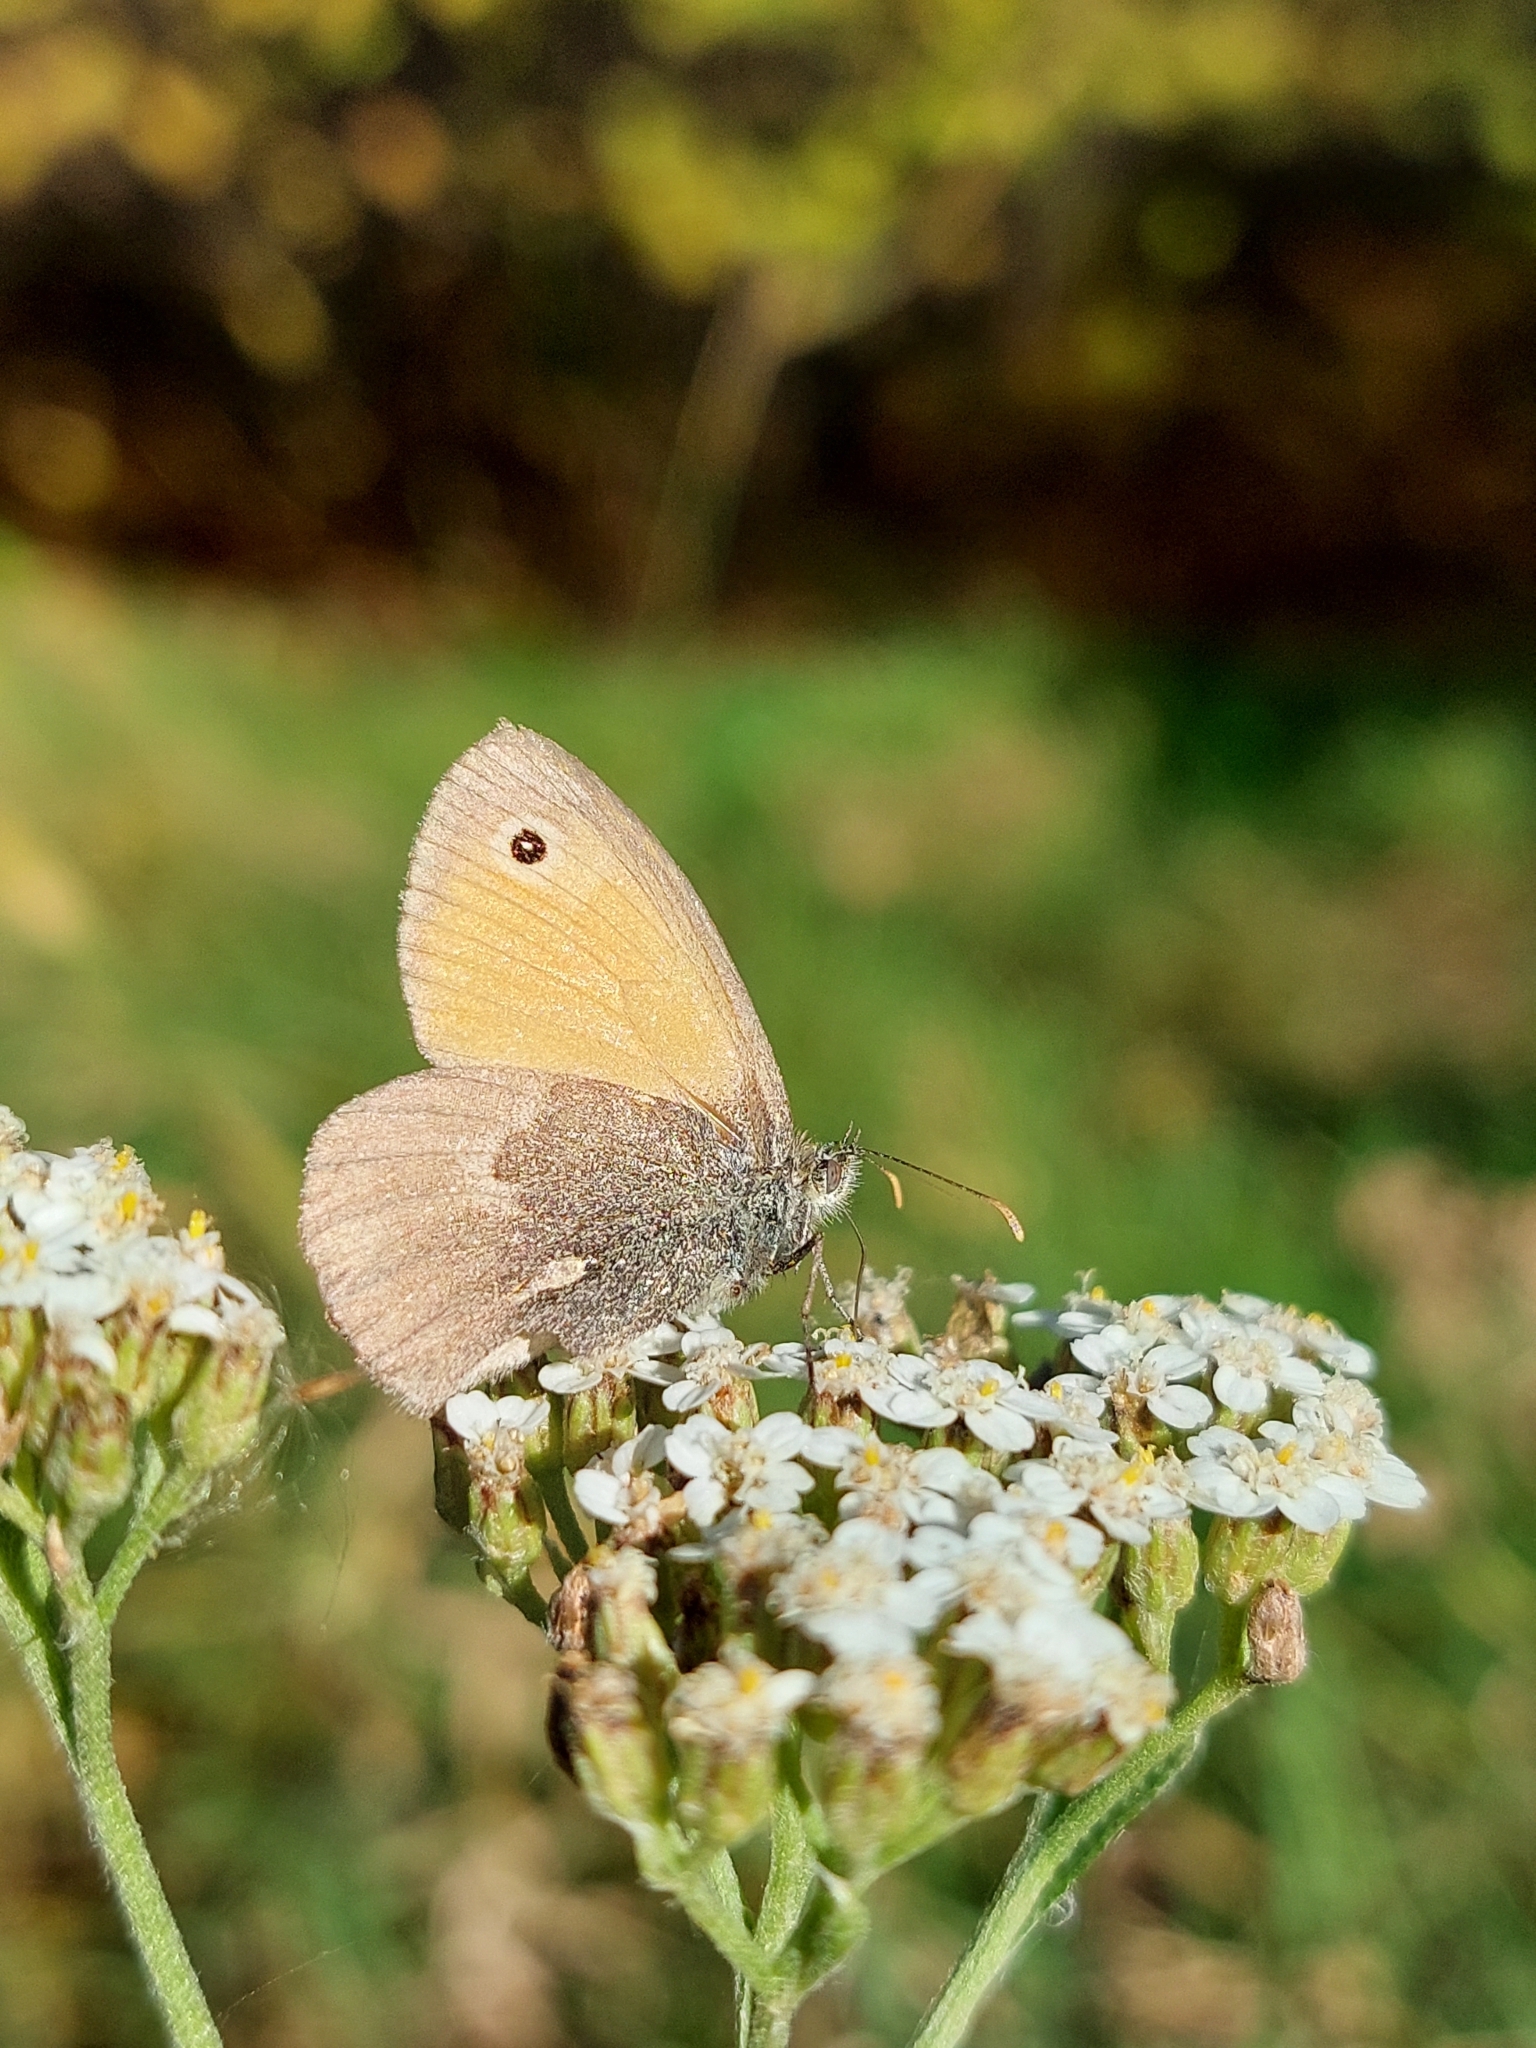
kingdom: Animalia
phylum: Arthropoda
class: Insecta
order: Lepidoptera
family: Nymphalidae
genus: Coenonympha
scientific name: Coenonympha pamphilus
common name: Small heath
